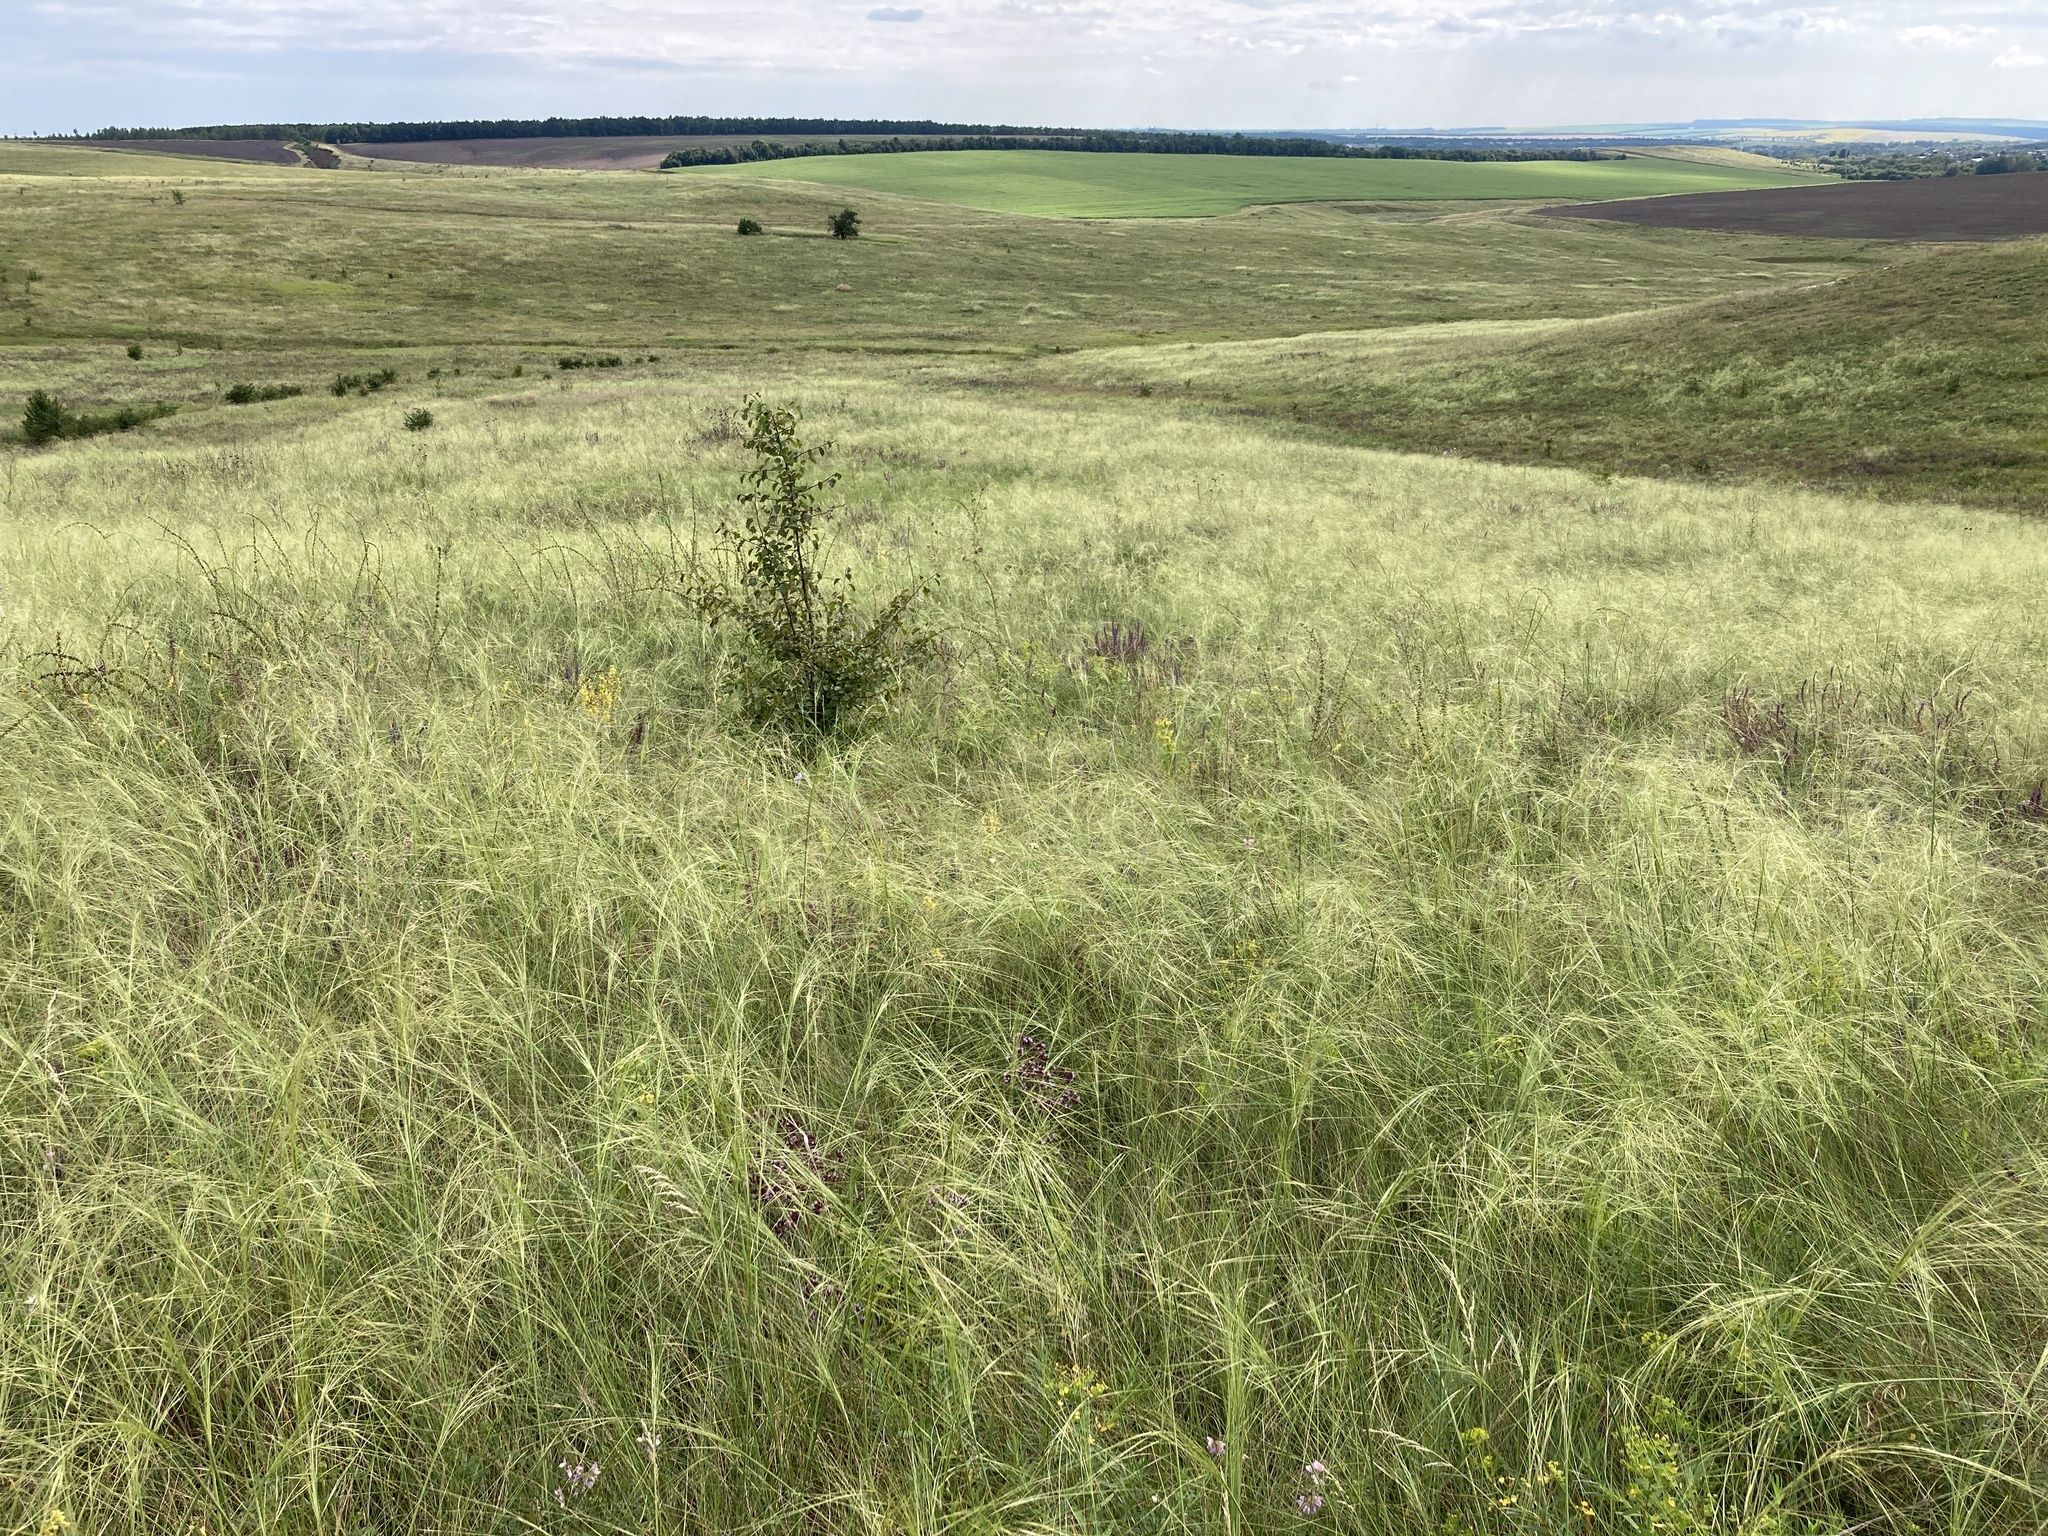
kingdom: Plantae
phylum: Tracheophyta
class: Liliopsida
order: Poales
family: Poaceae
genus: Stipa
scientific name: Stipa capillata
